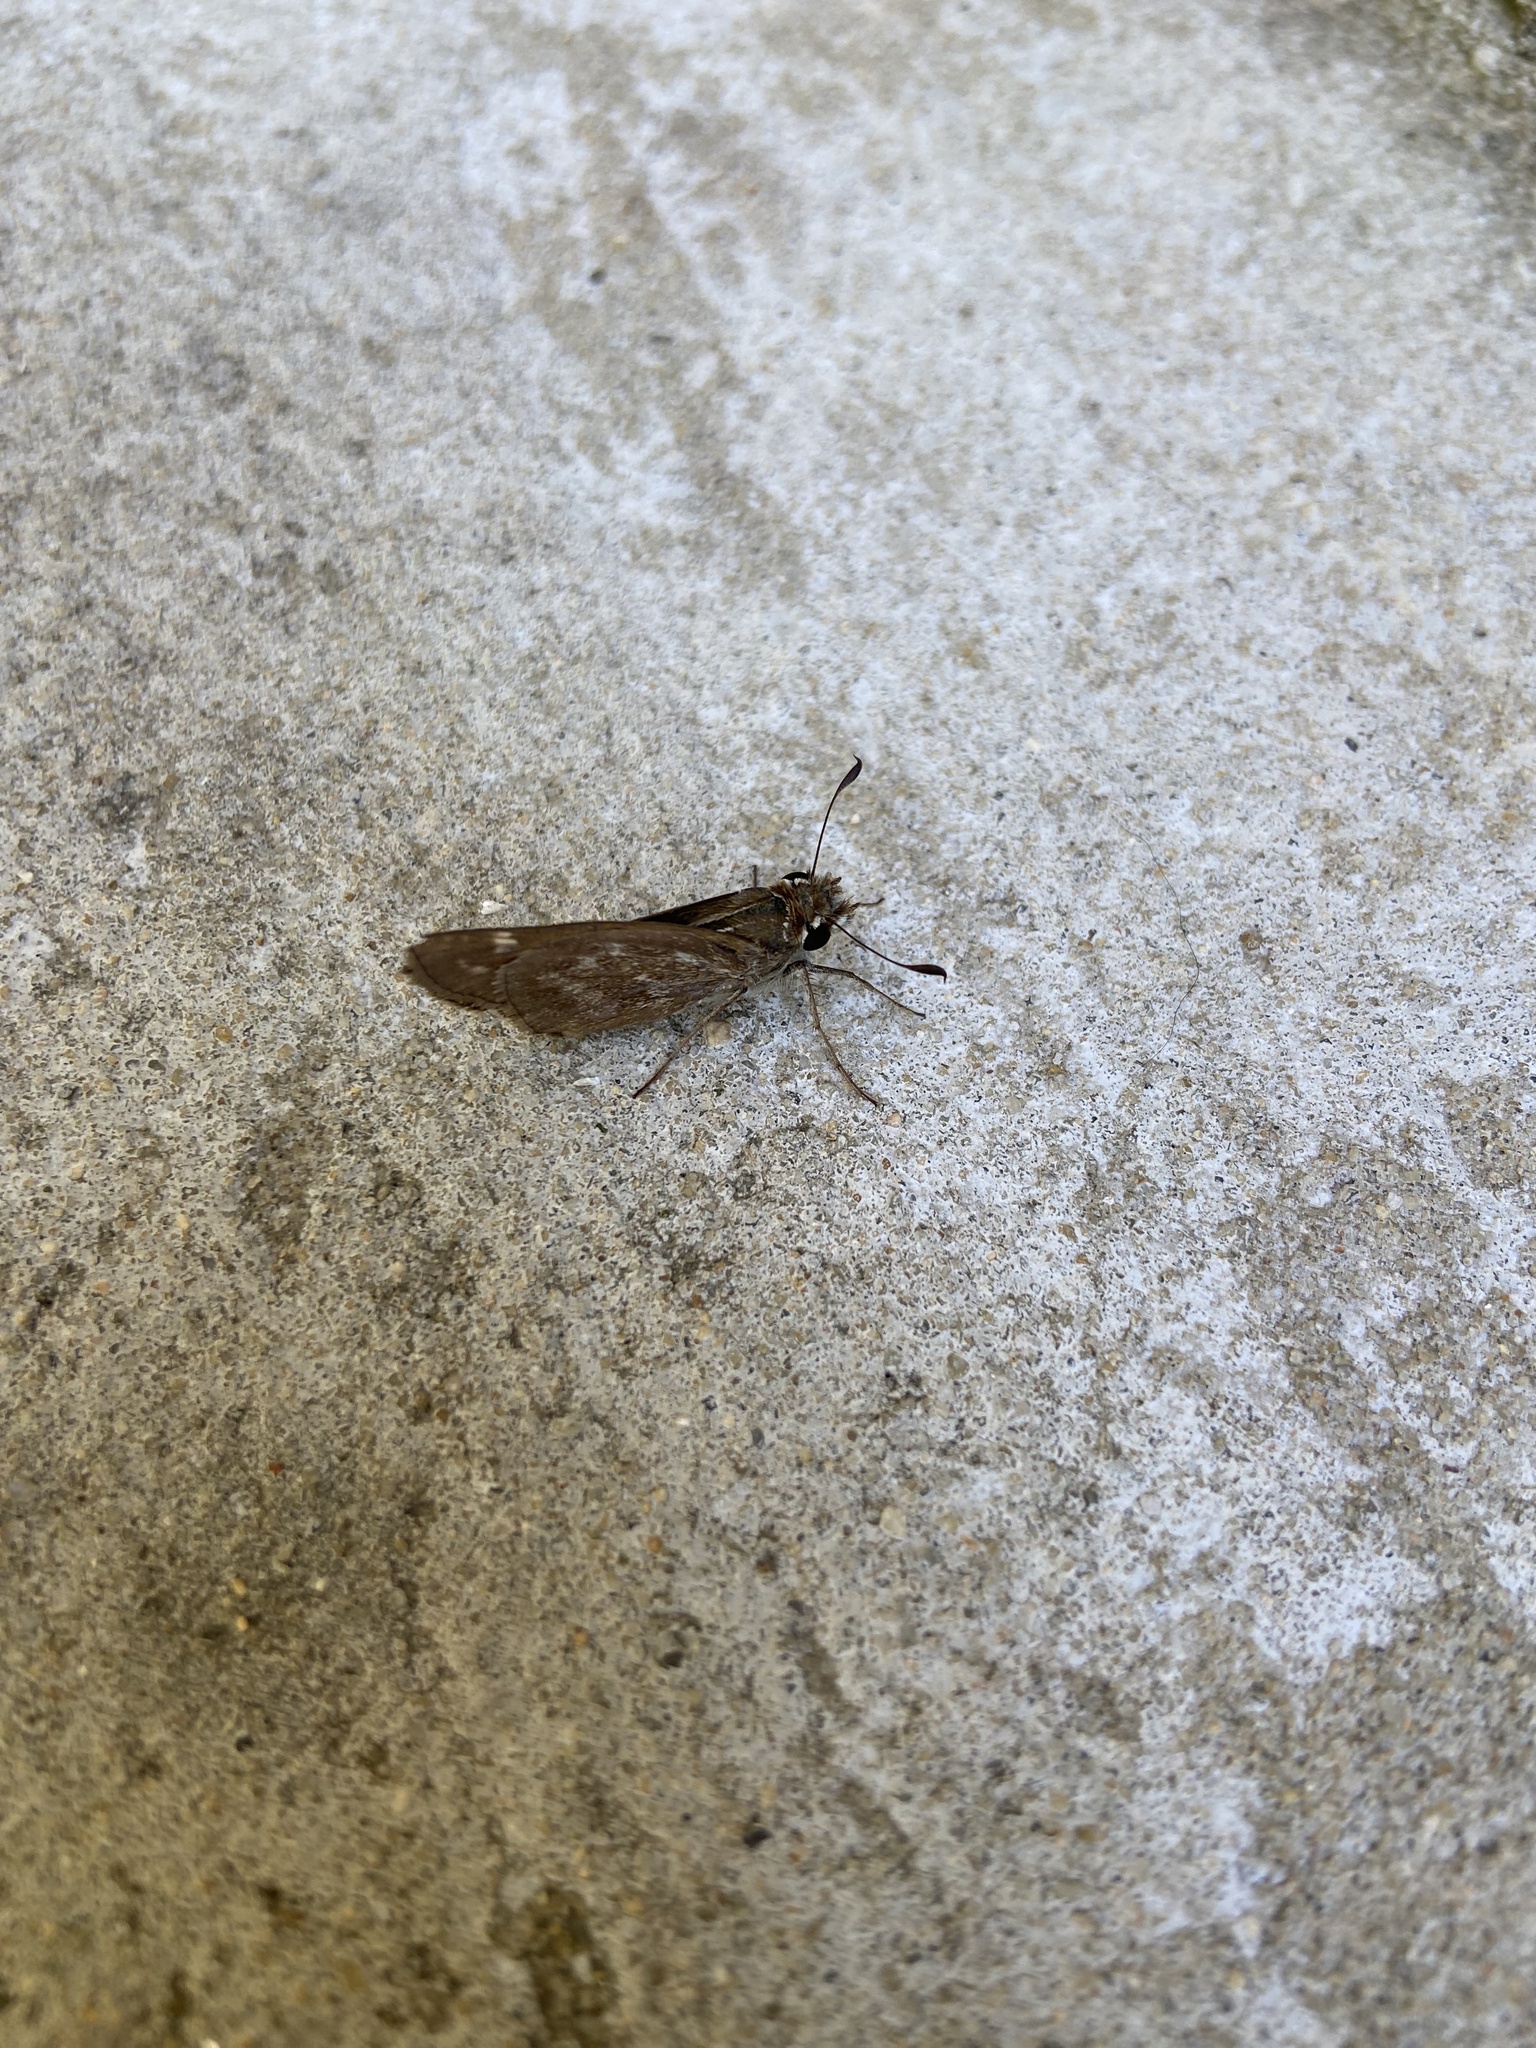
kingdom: Animalia
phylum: Arthropoda
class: Insecta
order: Lepidoptera
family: Hesperiidae
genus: Atalopedes
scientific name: Atalopedes
